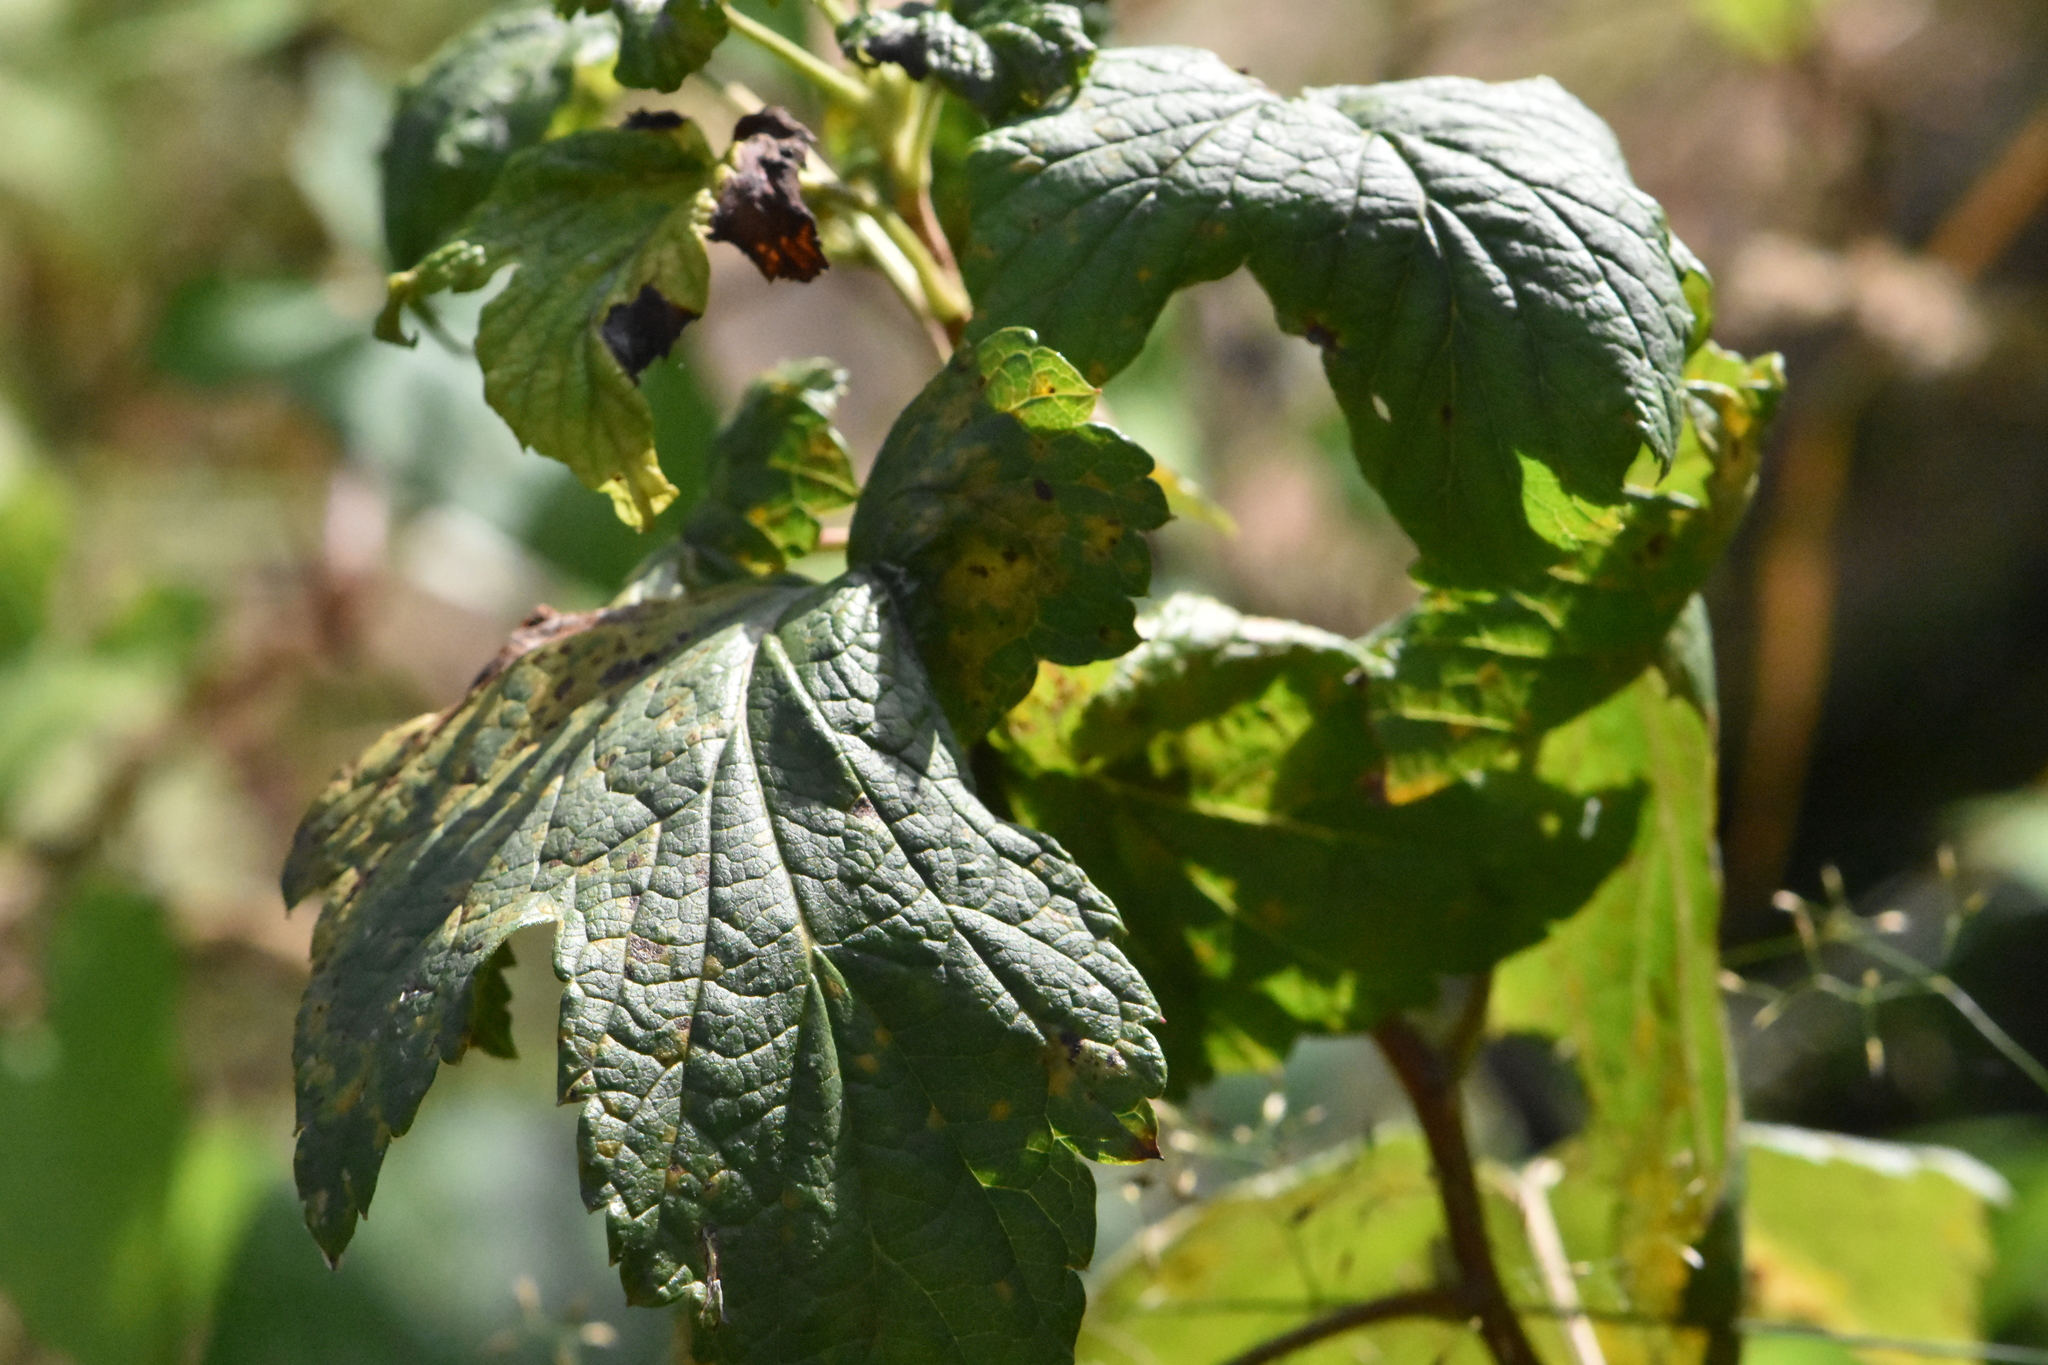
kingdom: Plantae
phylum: Tracheophyta
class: Magnoliopsida
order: Saxifragales
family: Grossulariaceae
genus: Ribes
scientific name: Ribes nigrum
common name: Black currant
